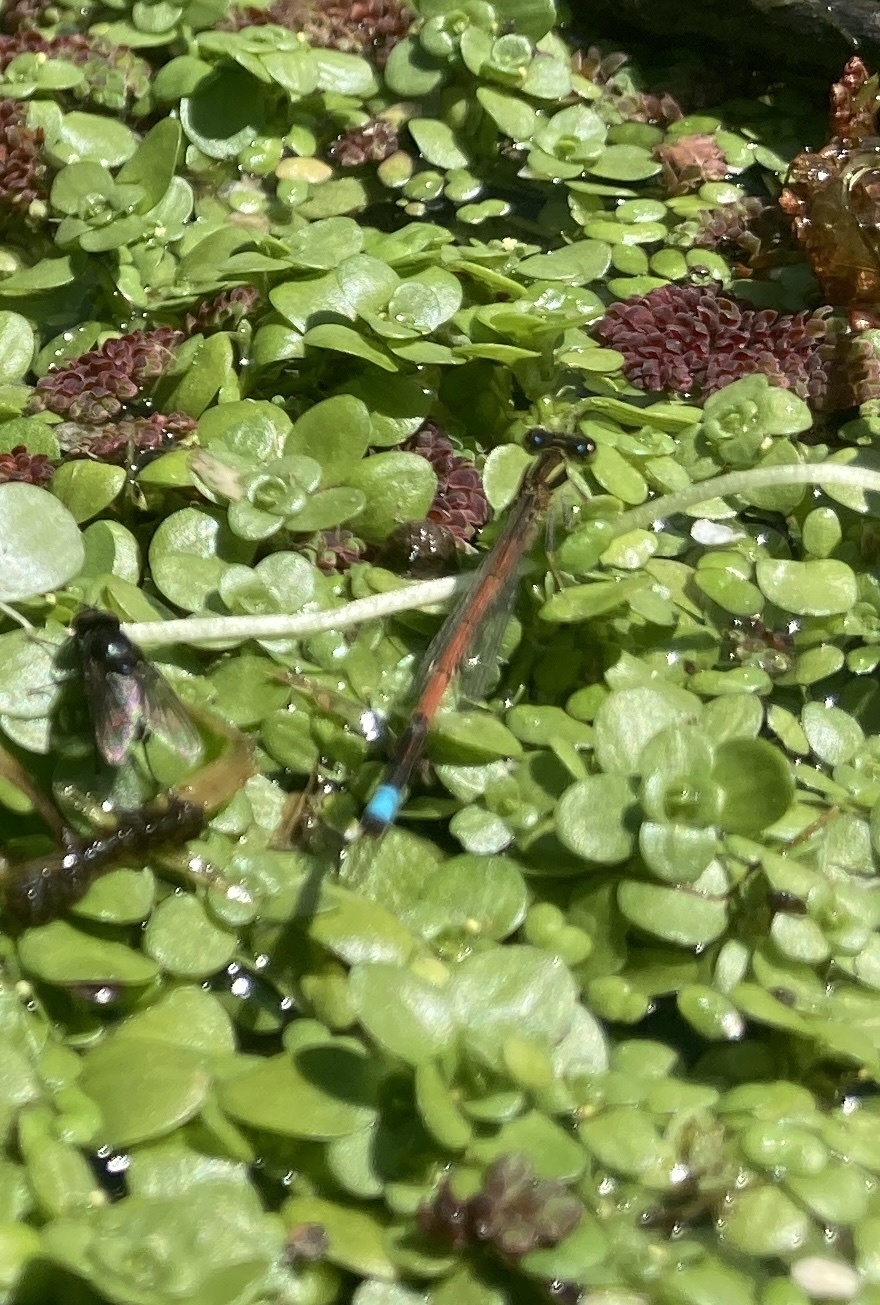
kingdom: Animalia
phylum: Arthropoda
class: Insecta
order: Odonata
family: Coenagrionidae
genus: Ischnura
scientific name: Ischnura aurora
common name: Gossamer damselfly
